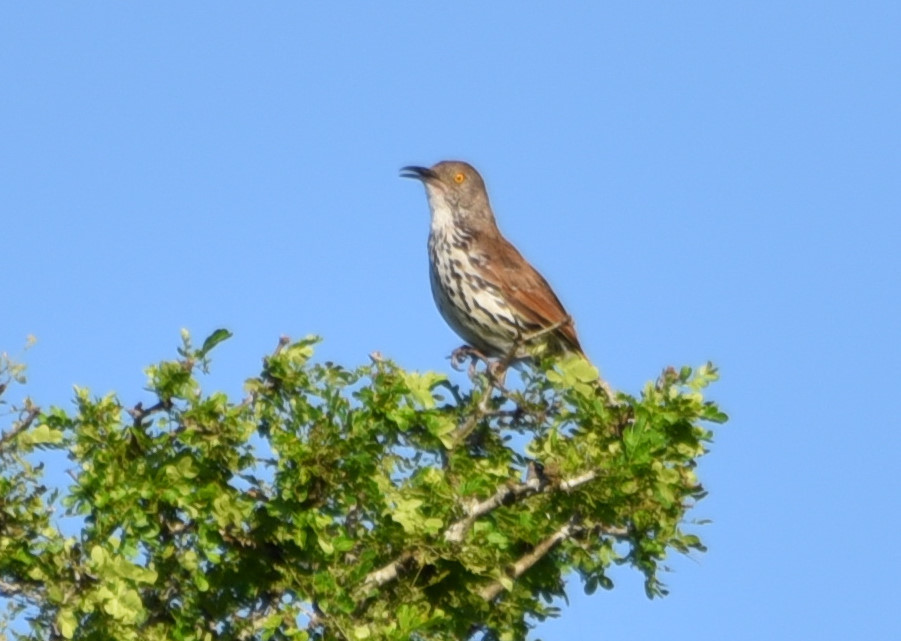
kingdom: Animalia
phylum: Chordata
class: Aves
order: Passeriformes
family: Mimidae
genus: Toxostoma
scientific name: Toxostoma longirostre
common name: Long-billed thrasher
